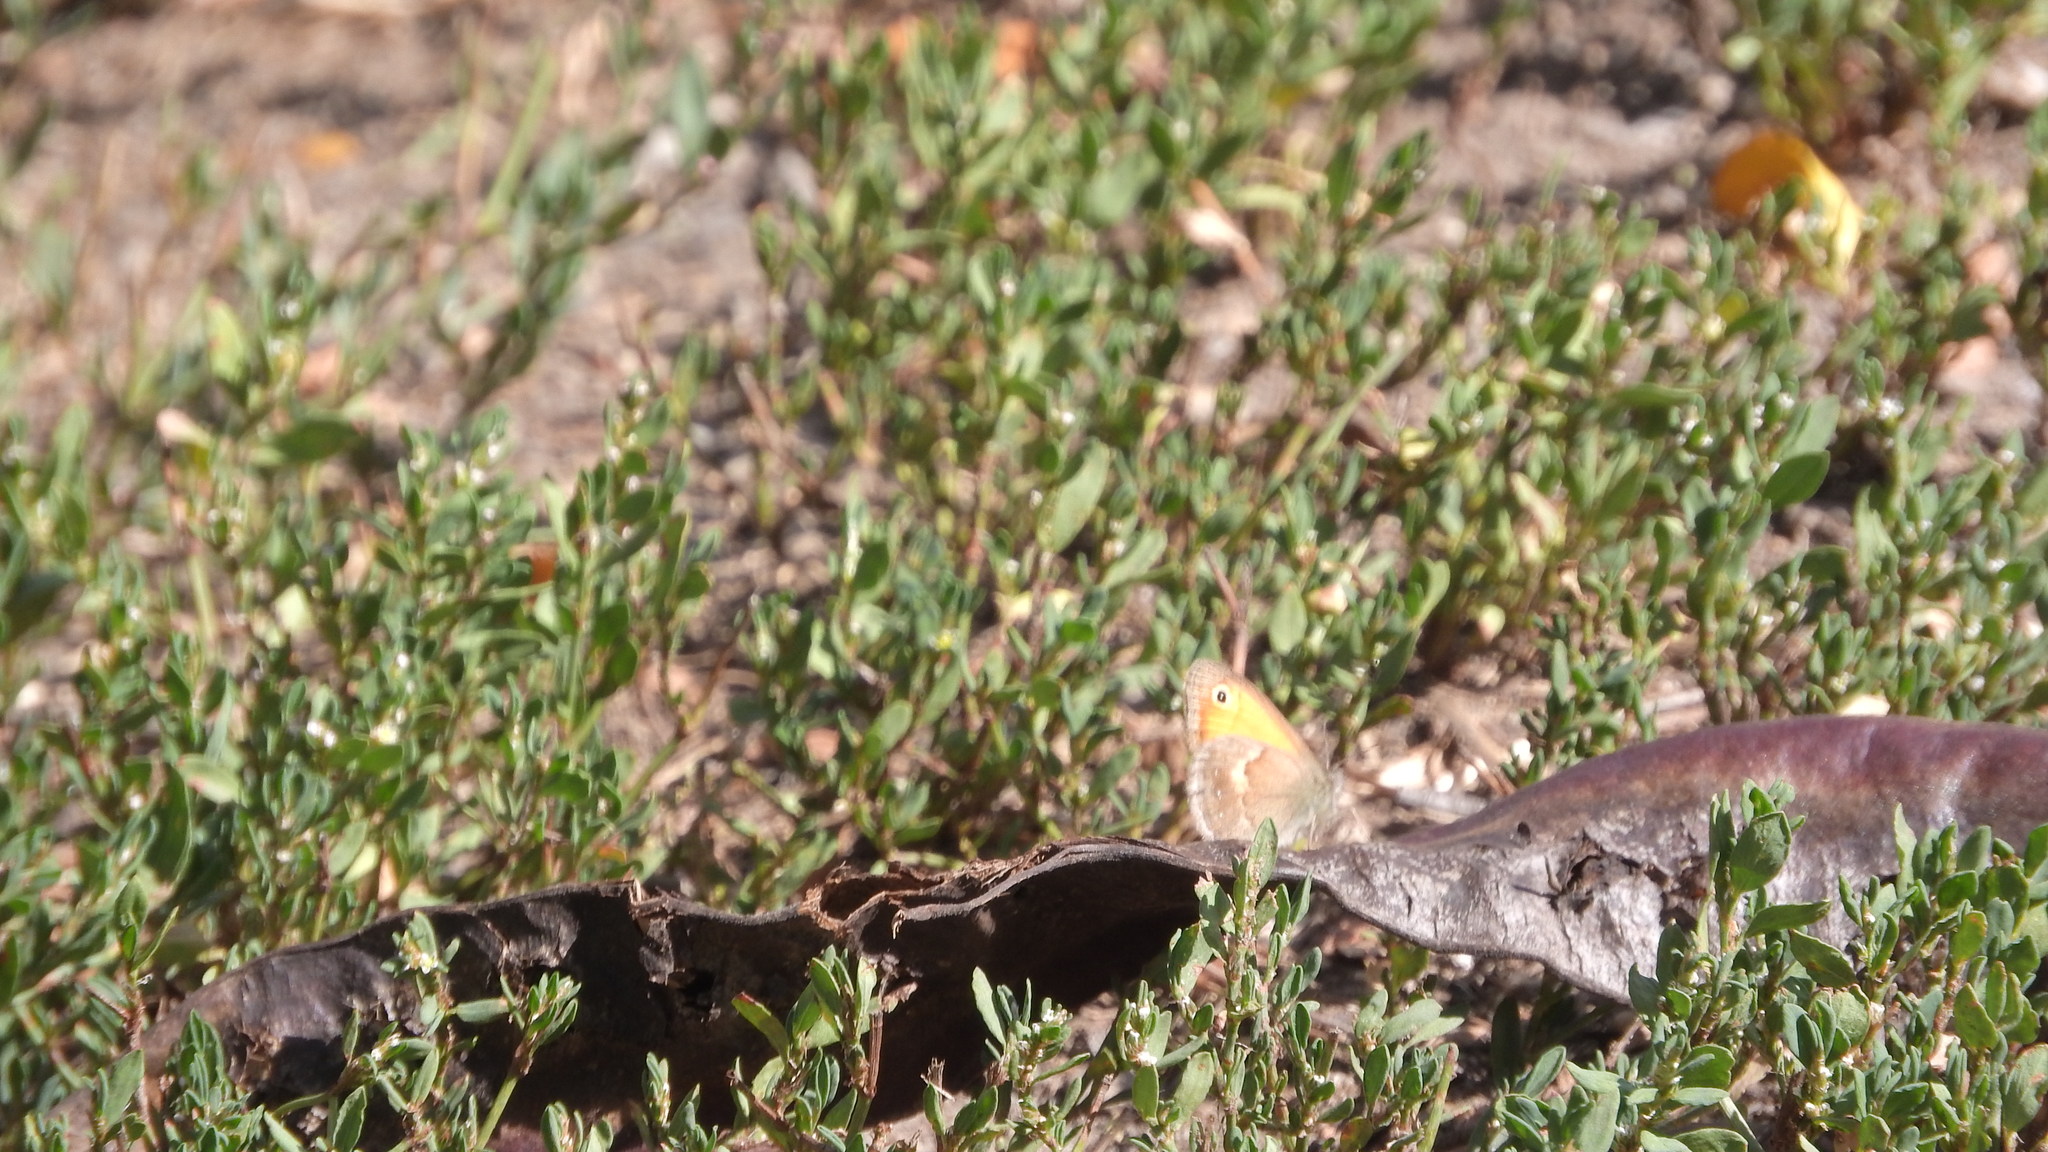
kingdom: Animalia
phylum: Arthropoda
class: Insecta
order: Lepidoptera
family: Nymphalidae
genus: Coenonympha
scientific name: Coenonympha pamphilus
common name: Small heath
